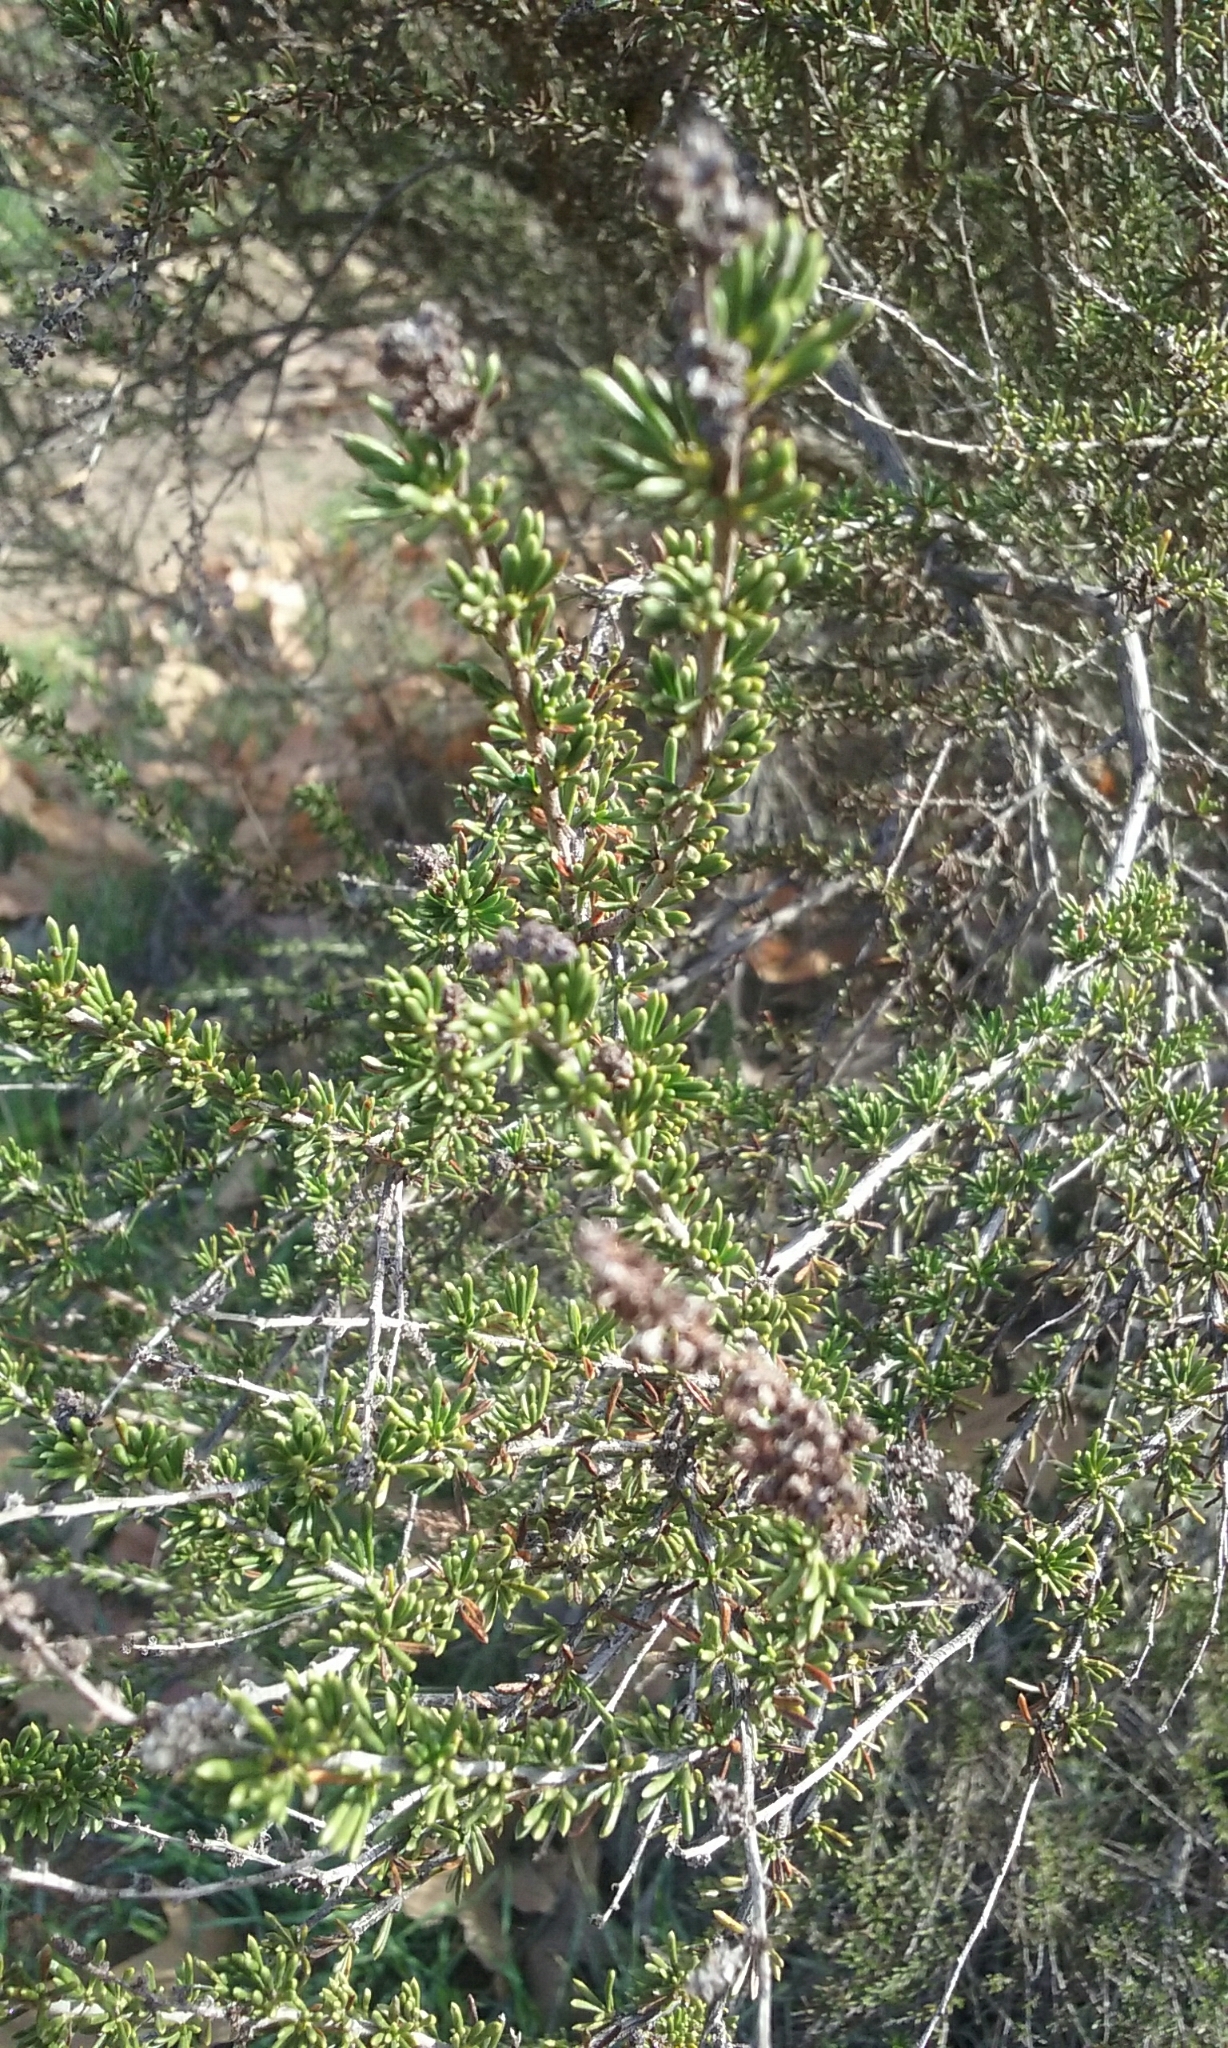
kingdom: Plantae
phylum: Tracheophyta
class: Magnoliopsida
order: Rosales
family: Rosaceae
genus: Adenostoma
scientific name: Adenostoma fasciculatum
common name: Chamise
